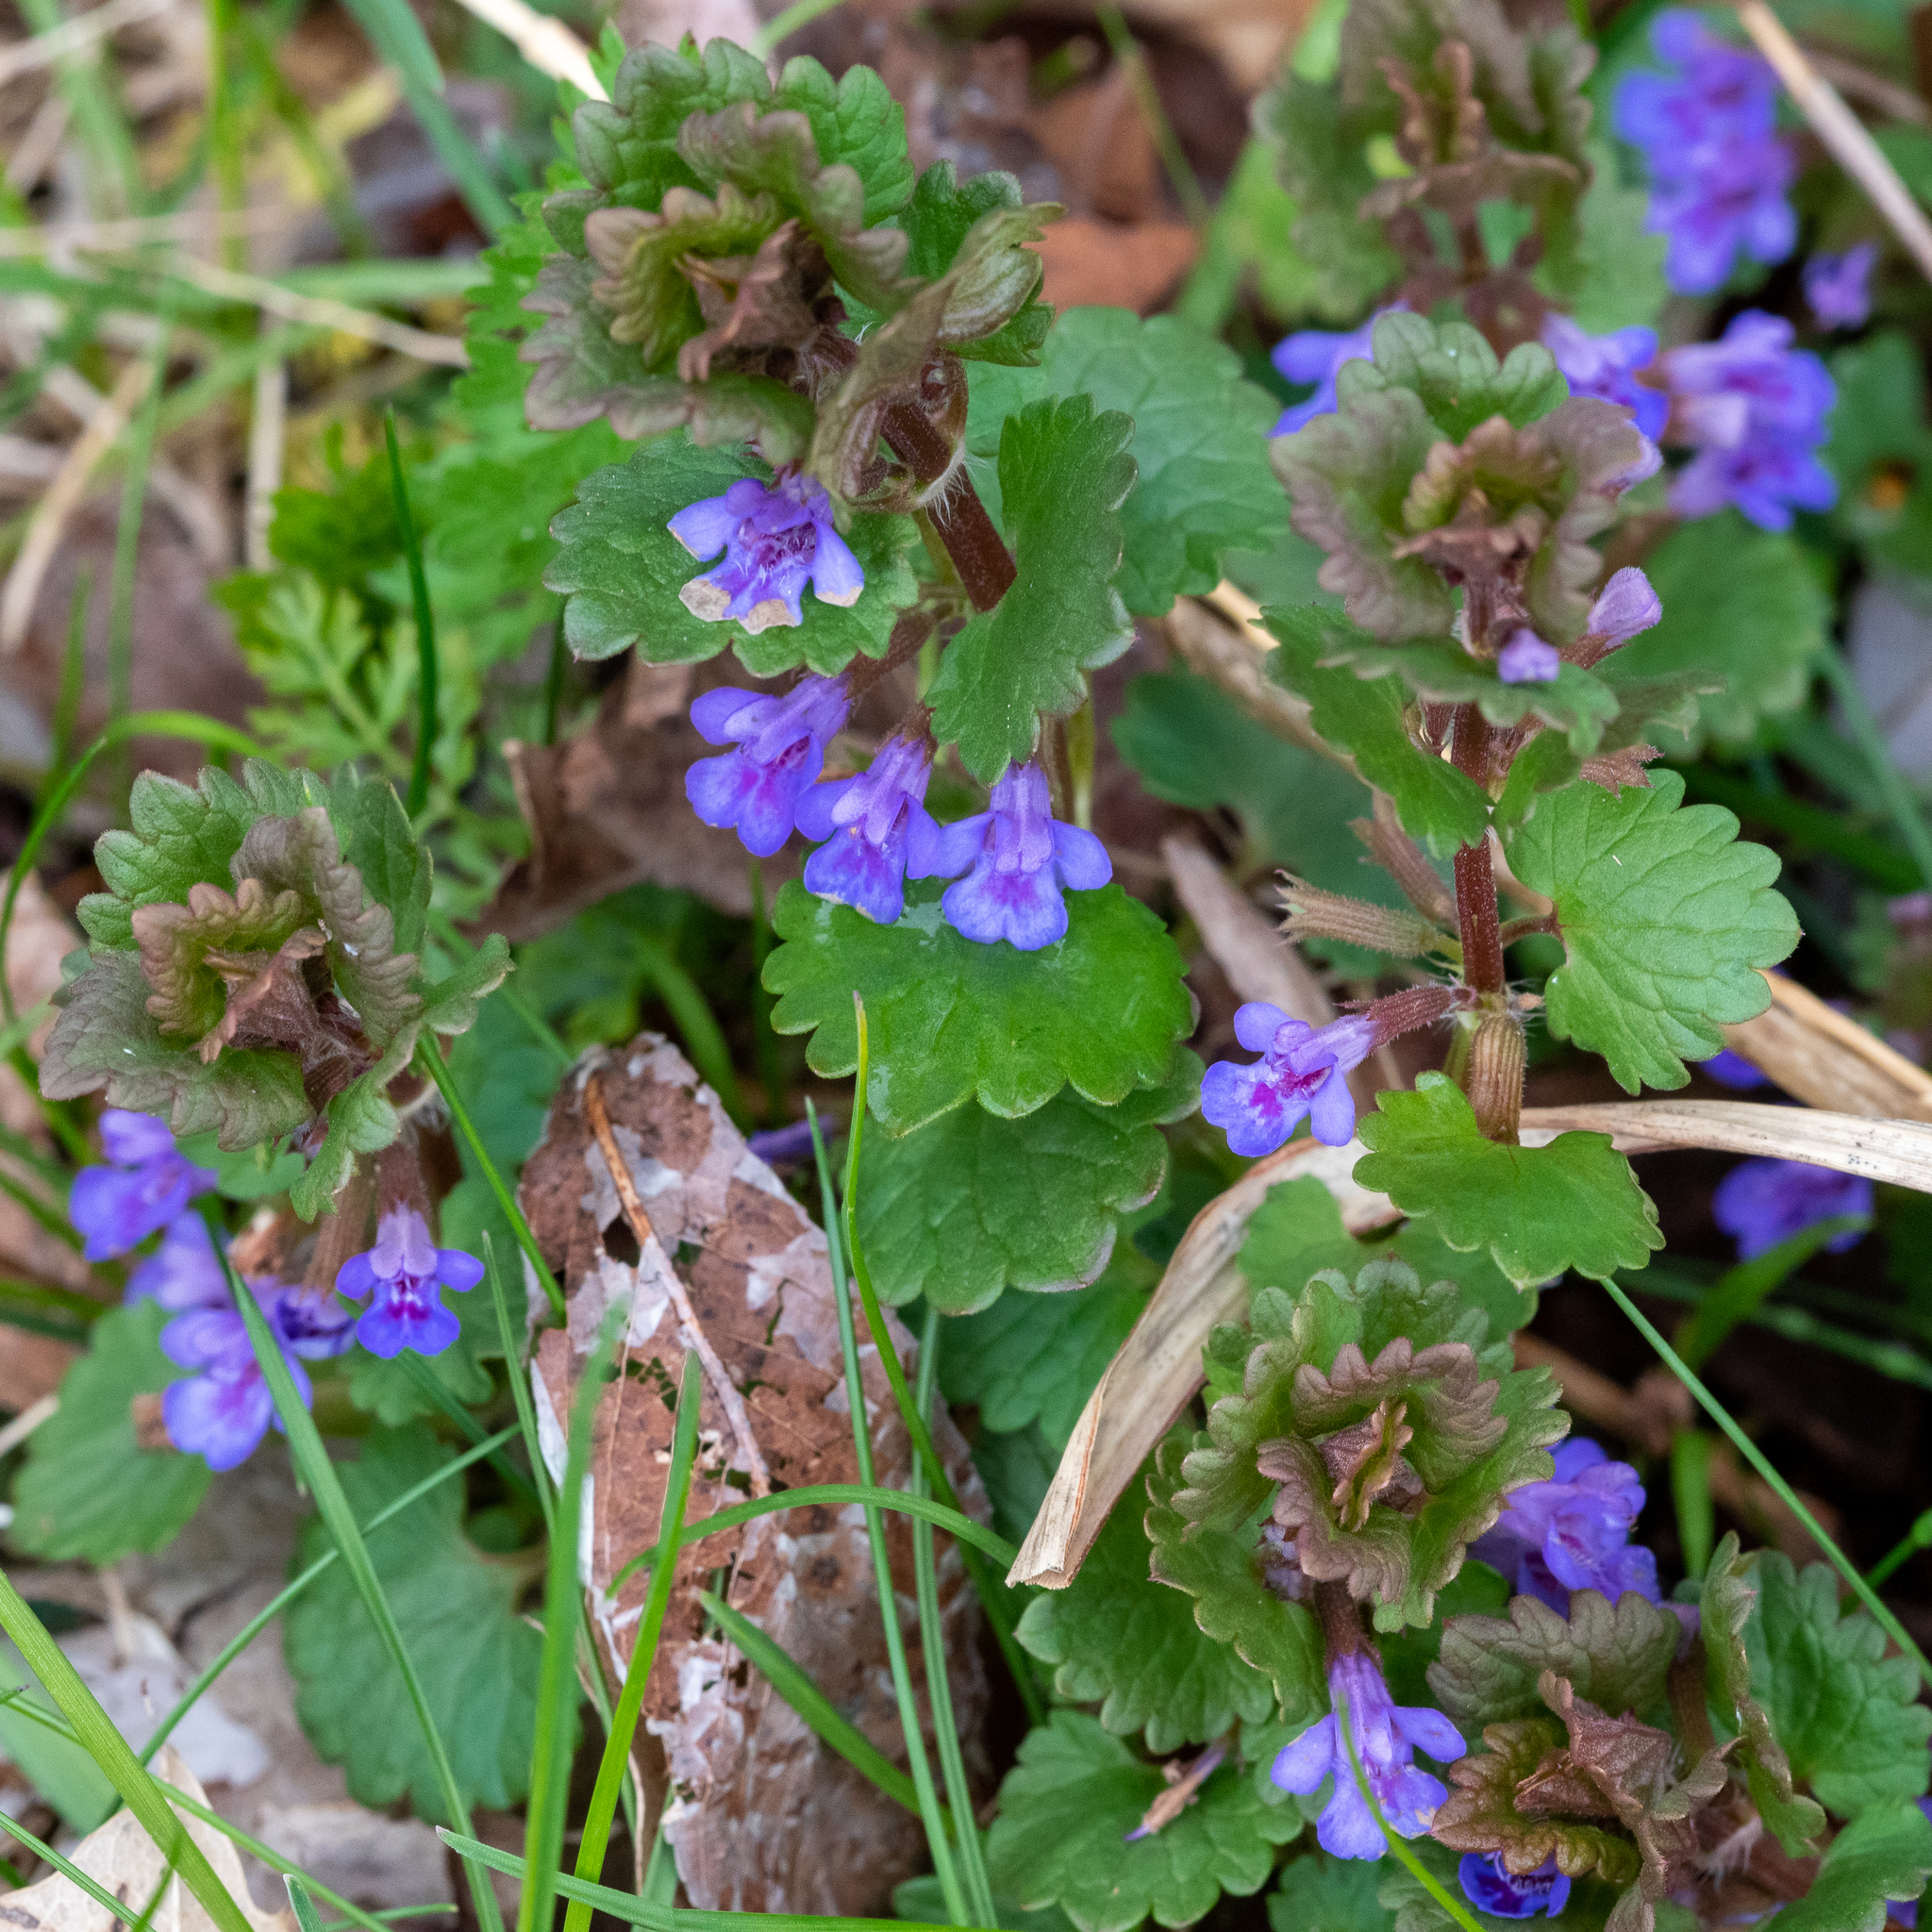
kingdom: Plantae
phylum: Tracheophyta
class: Magnoliopsida
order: Lamiales
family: Lamiaceae
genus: Glechoma
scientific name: Glechoma hederacea
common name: Ground ivy
